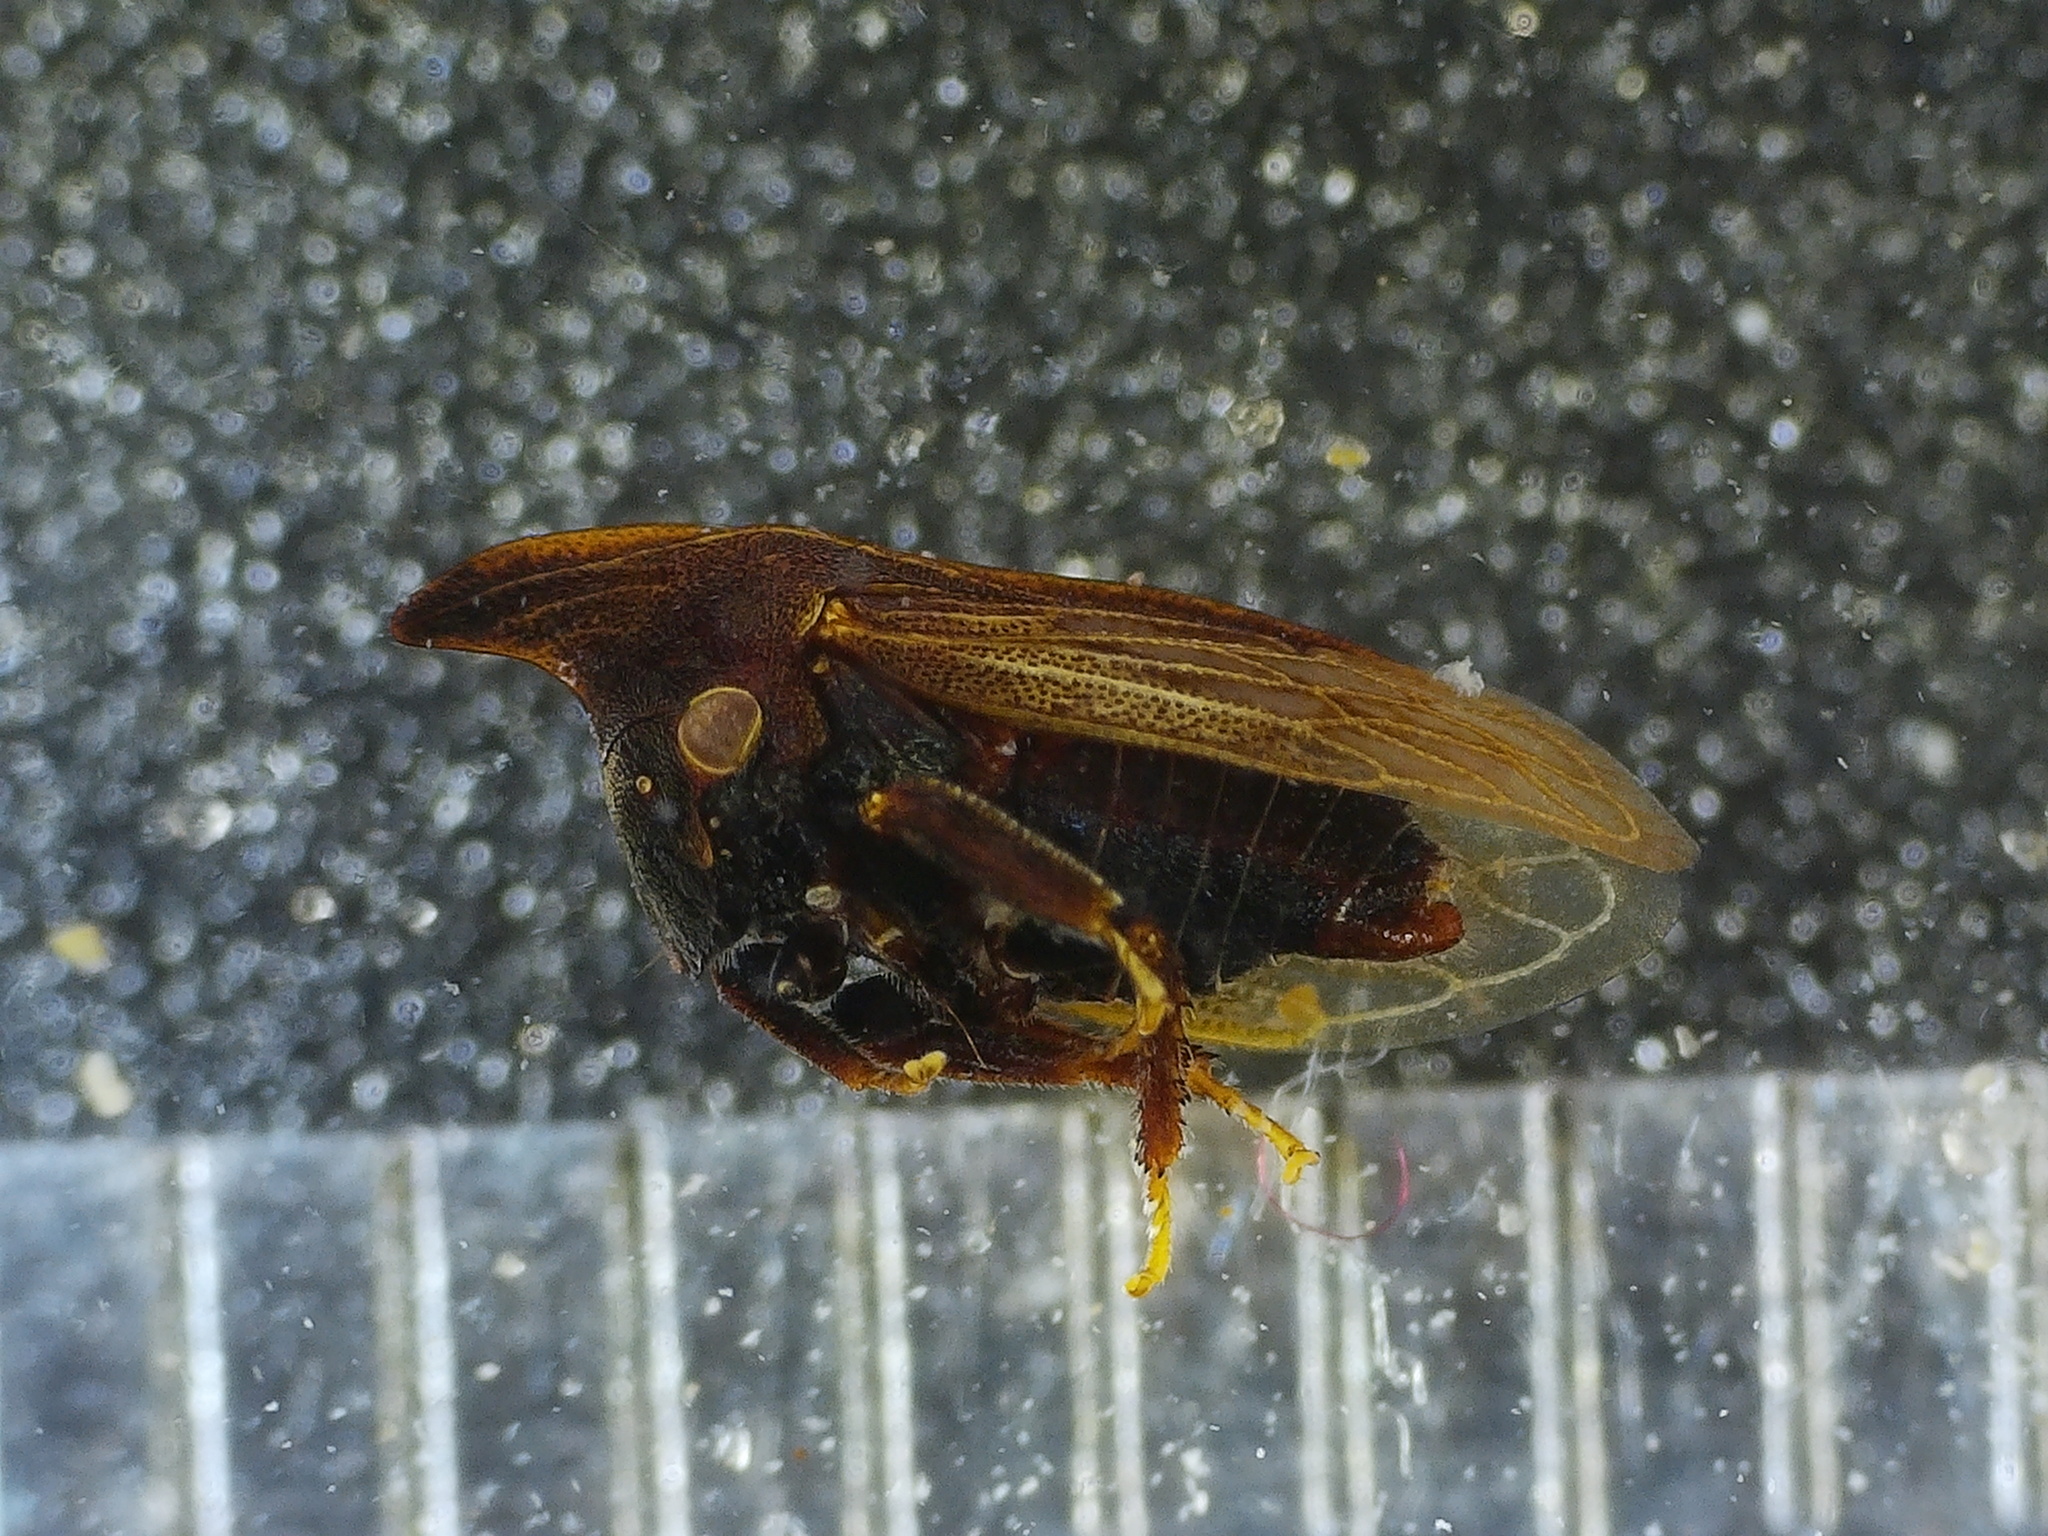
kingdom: Animalia
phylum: Arthropoda
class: Insecta
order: Hemiptera
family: Membracidae
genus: Enchenopa
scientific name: Enchenopa latipes
